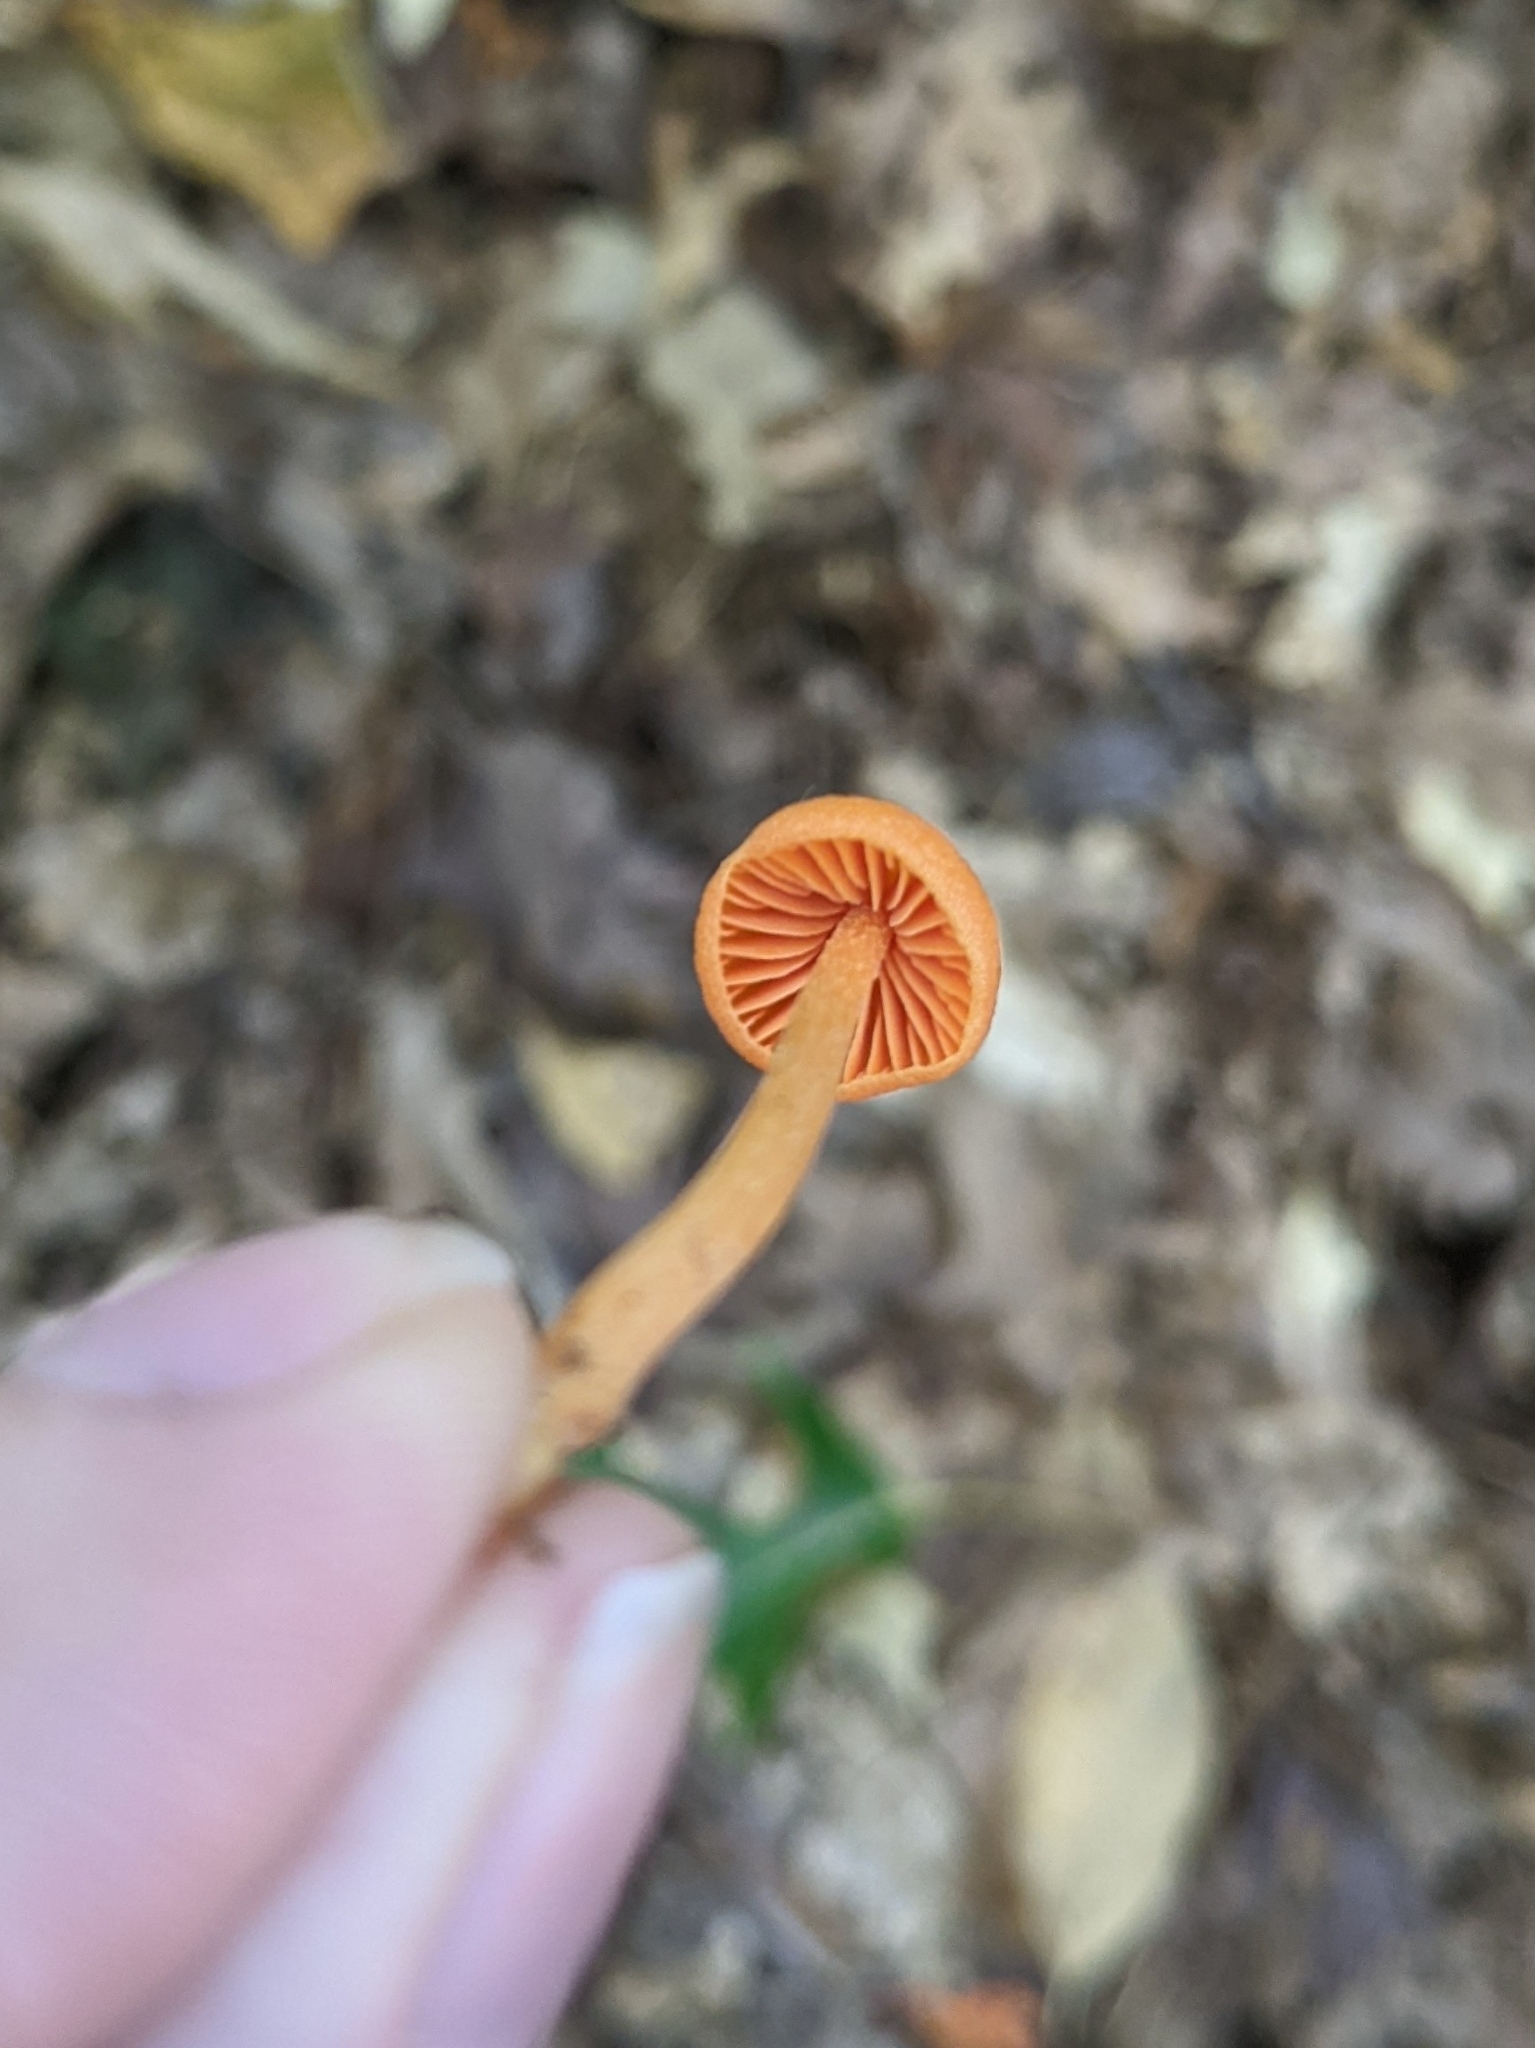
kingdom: Fungi
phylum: Basidiomycota
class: Agaricomycetes
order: Agaricales
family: Entolomataceae
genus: Entoloma
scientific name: Entoloma quadratum
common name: Salmon pinkgill
